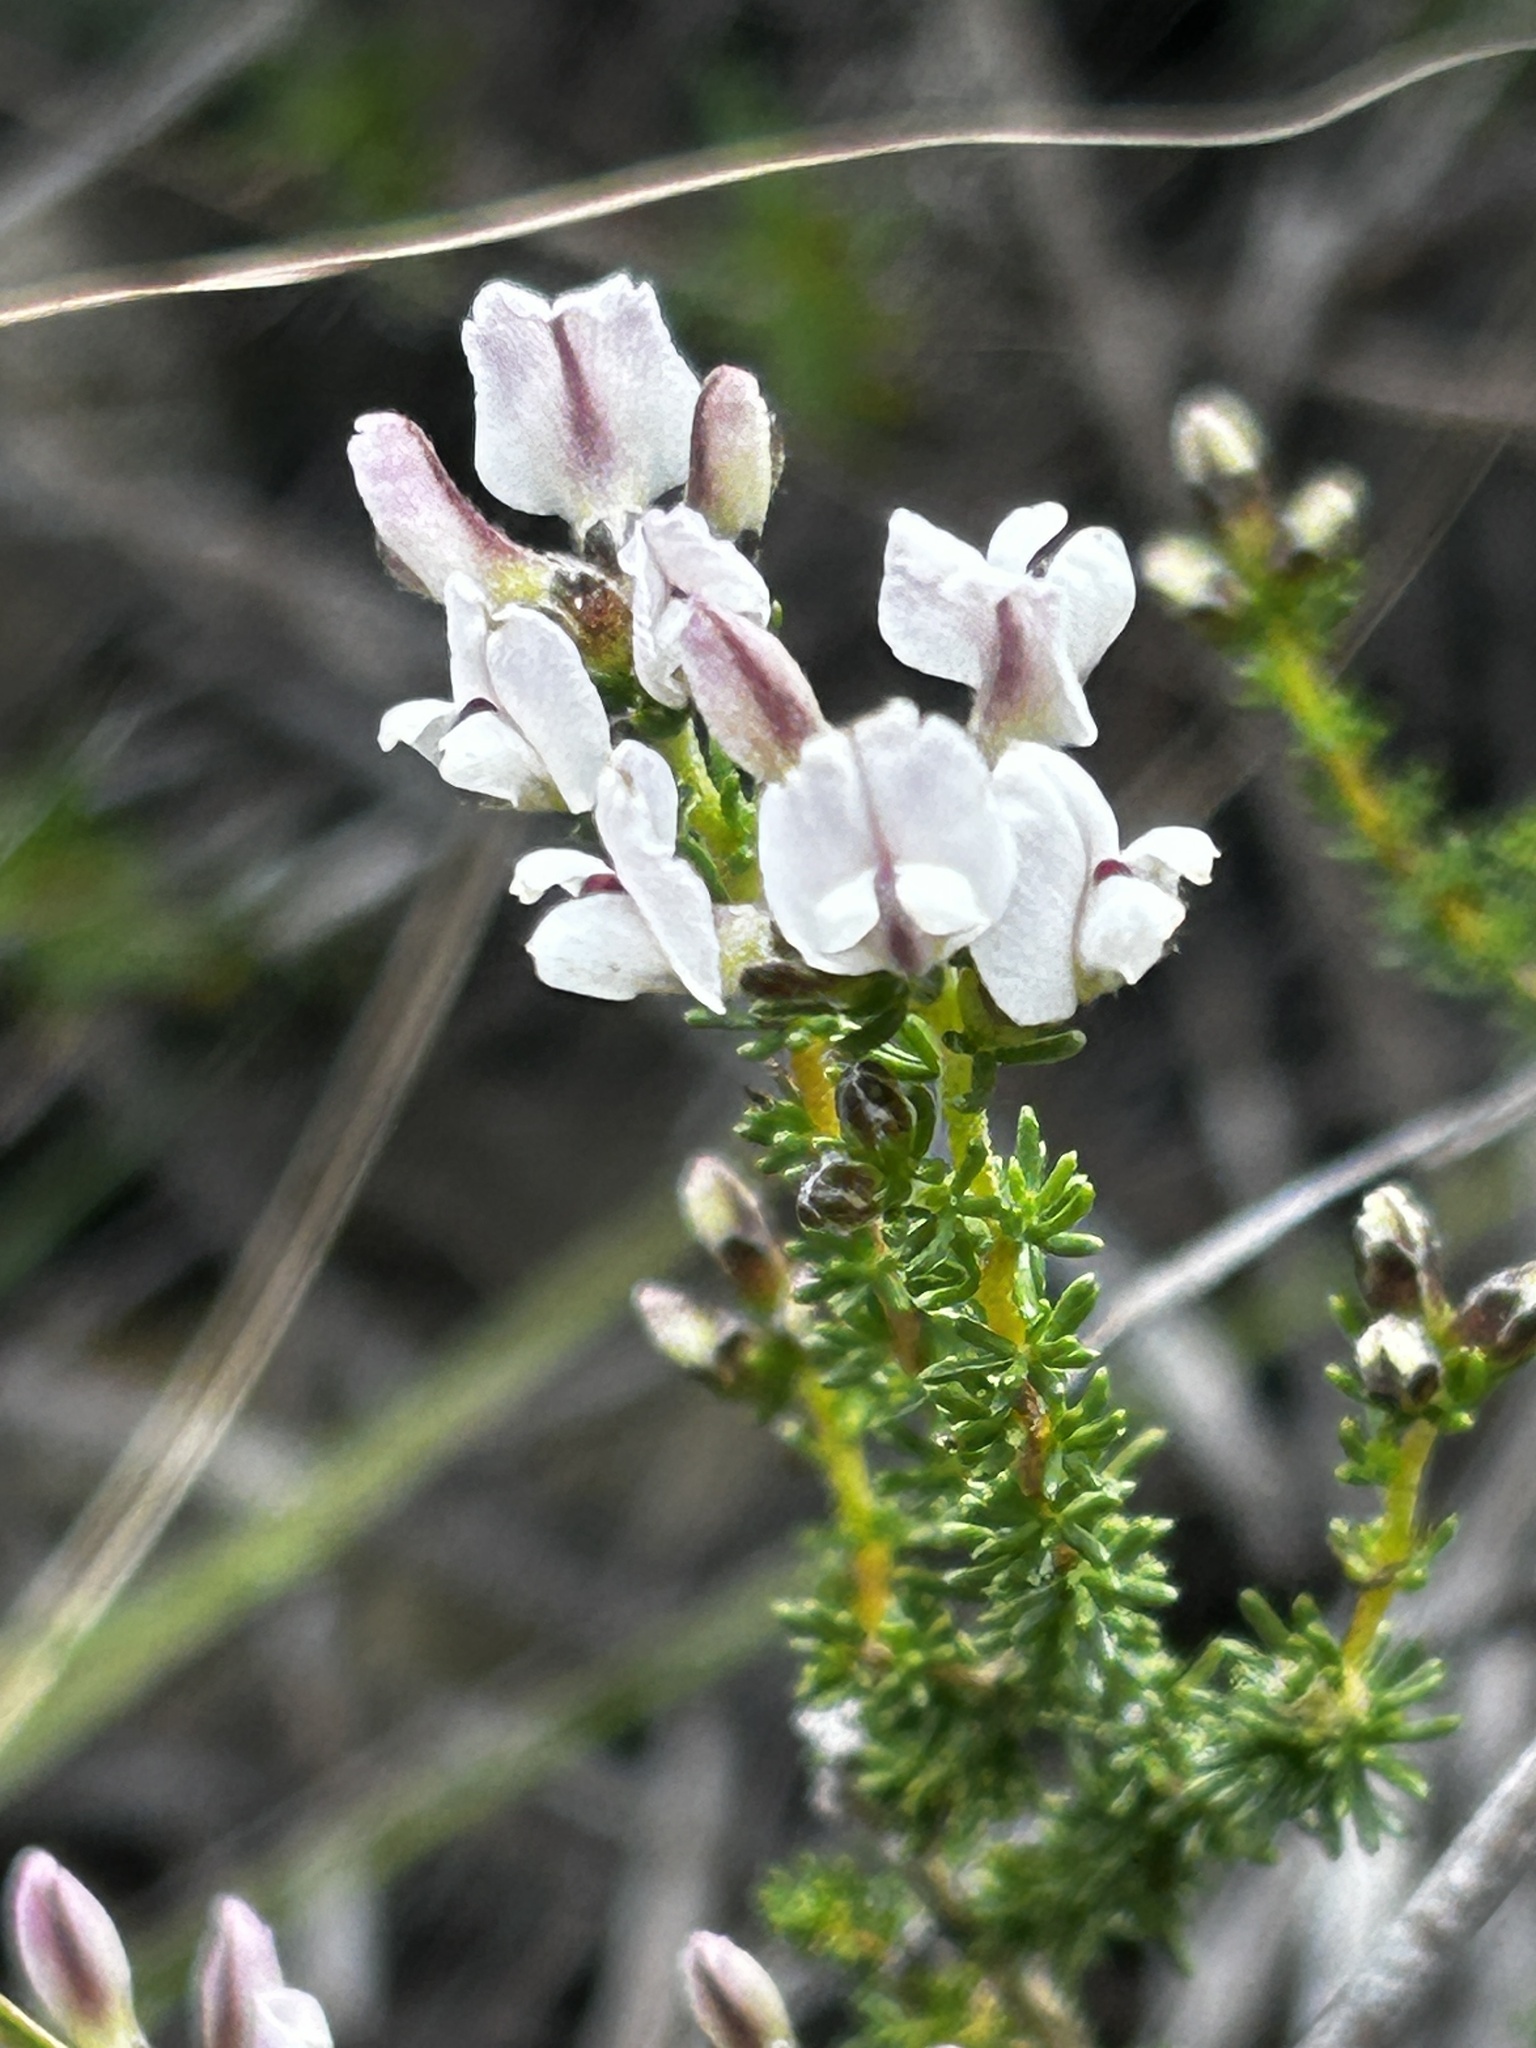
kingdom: Plantae
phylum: Tracheophyta
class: Magnoliopsida
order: Fabales
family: Fabaceae
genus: Aspalathus
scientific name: Aspalathus nigra
